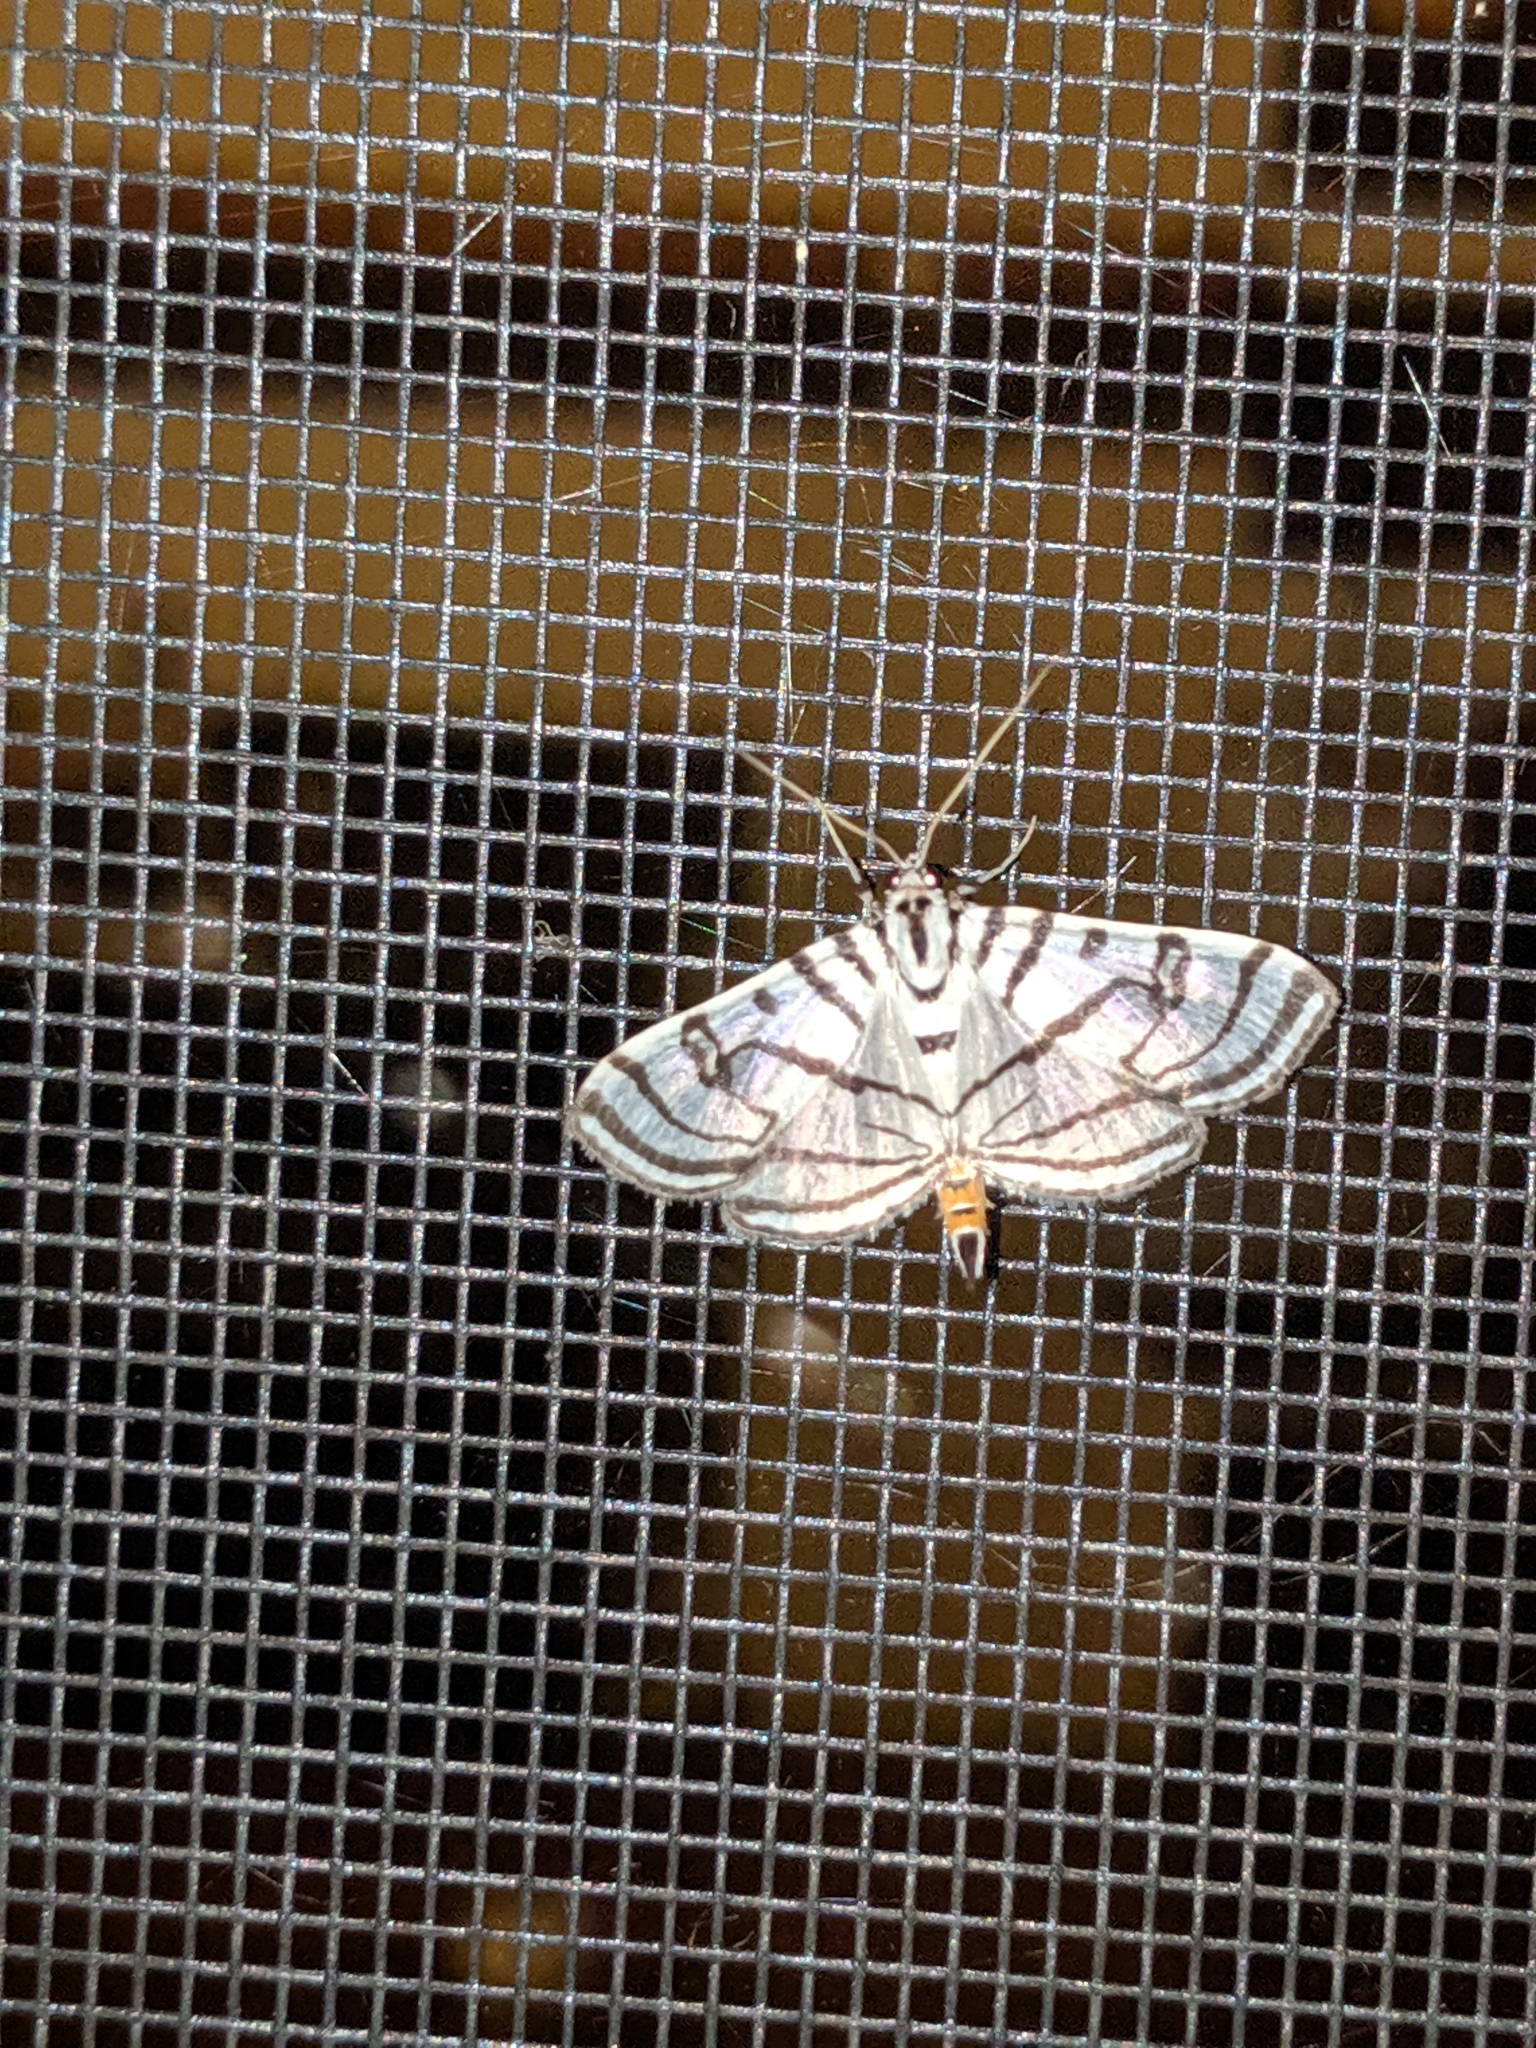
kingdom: Animalia
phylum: Arthropoda
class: Insecta
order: Lepidoptera
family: Crambidae
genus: Conchylodes
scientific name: Conchylodes ovulalis
